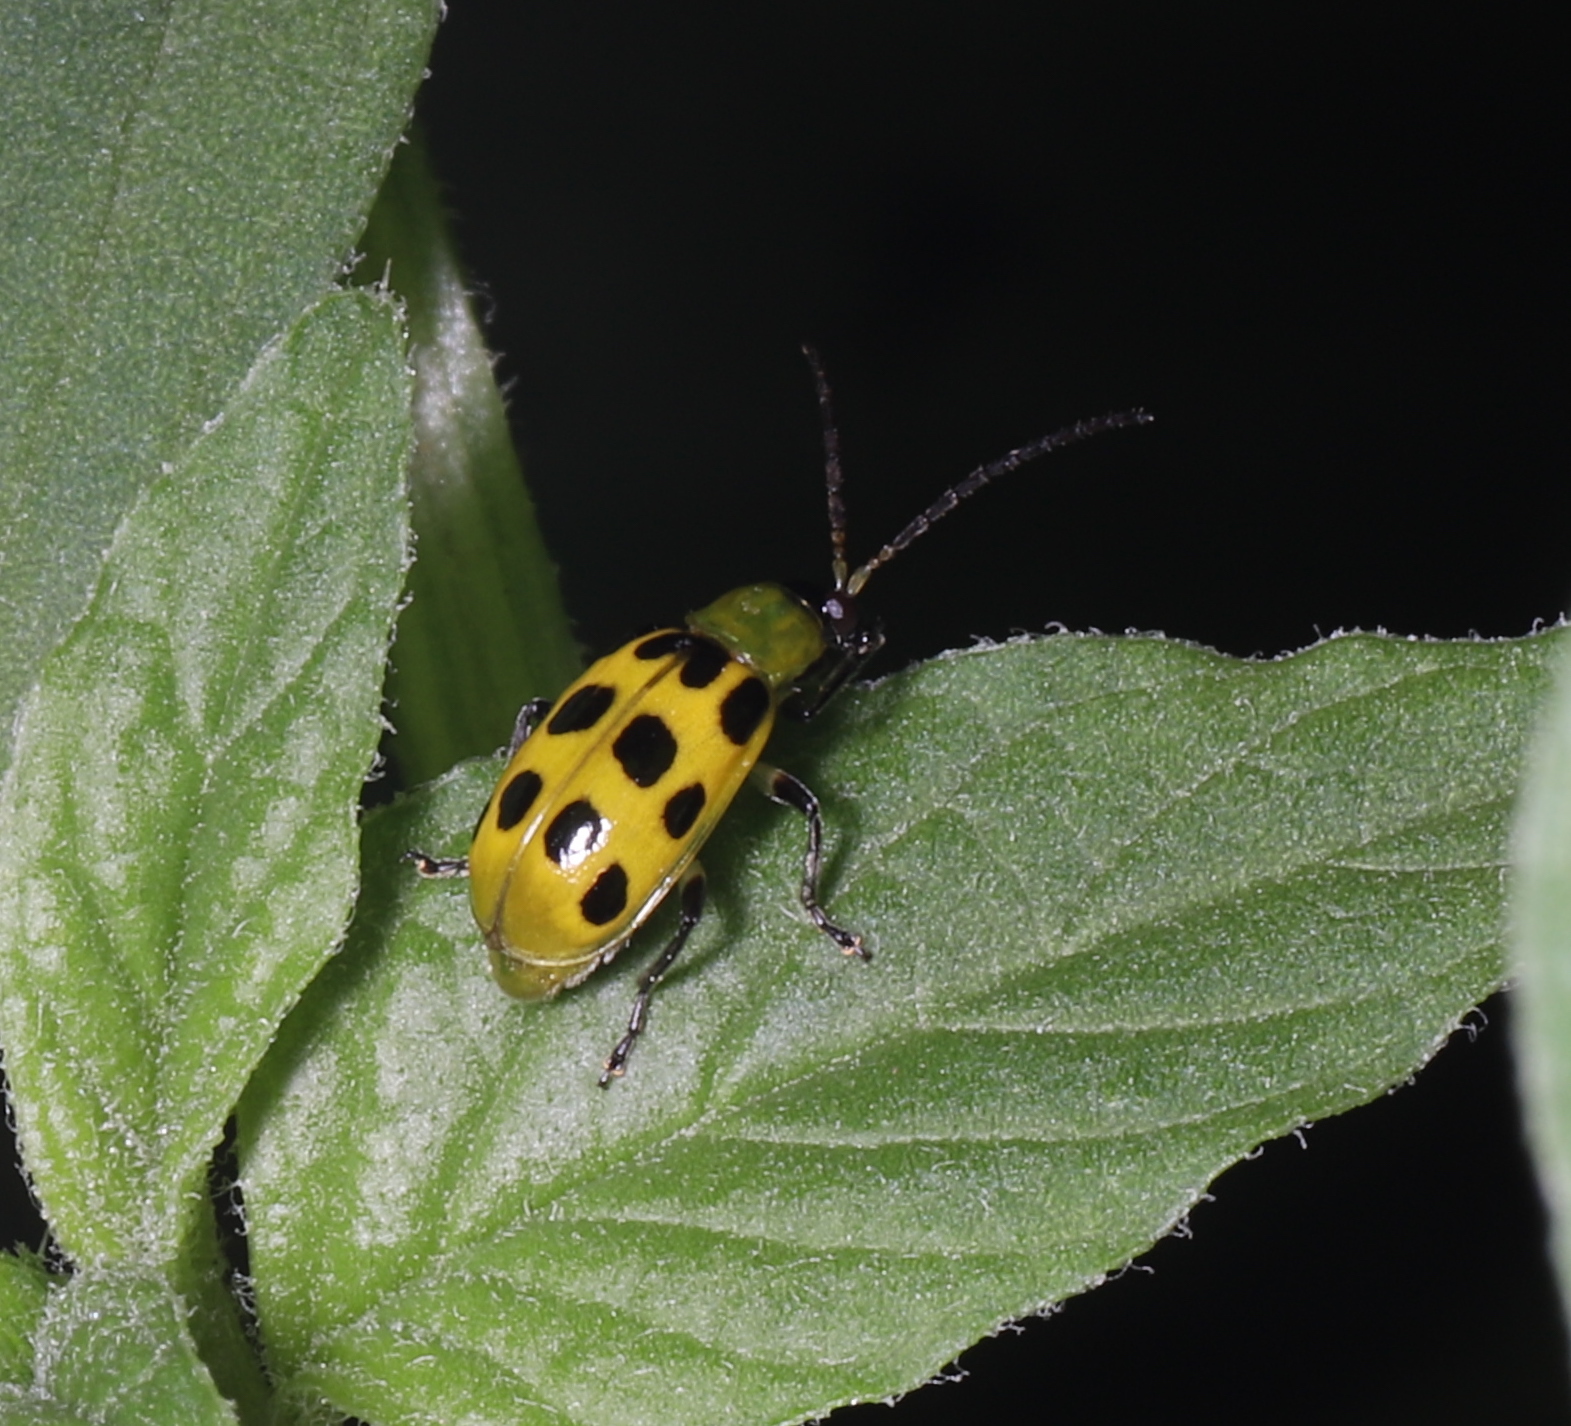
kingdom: Animalia
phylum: Arthropoda
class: Insecta
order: Coleoptera
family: Chrysomelidae
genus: Diabrotica
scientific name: Diabrotica undecimpunctata
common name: Spotted cucumber beetle
